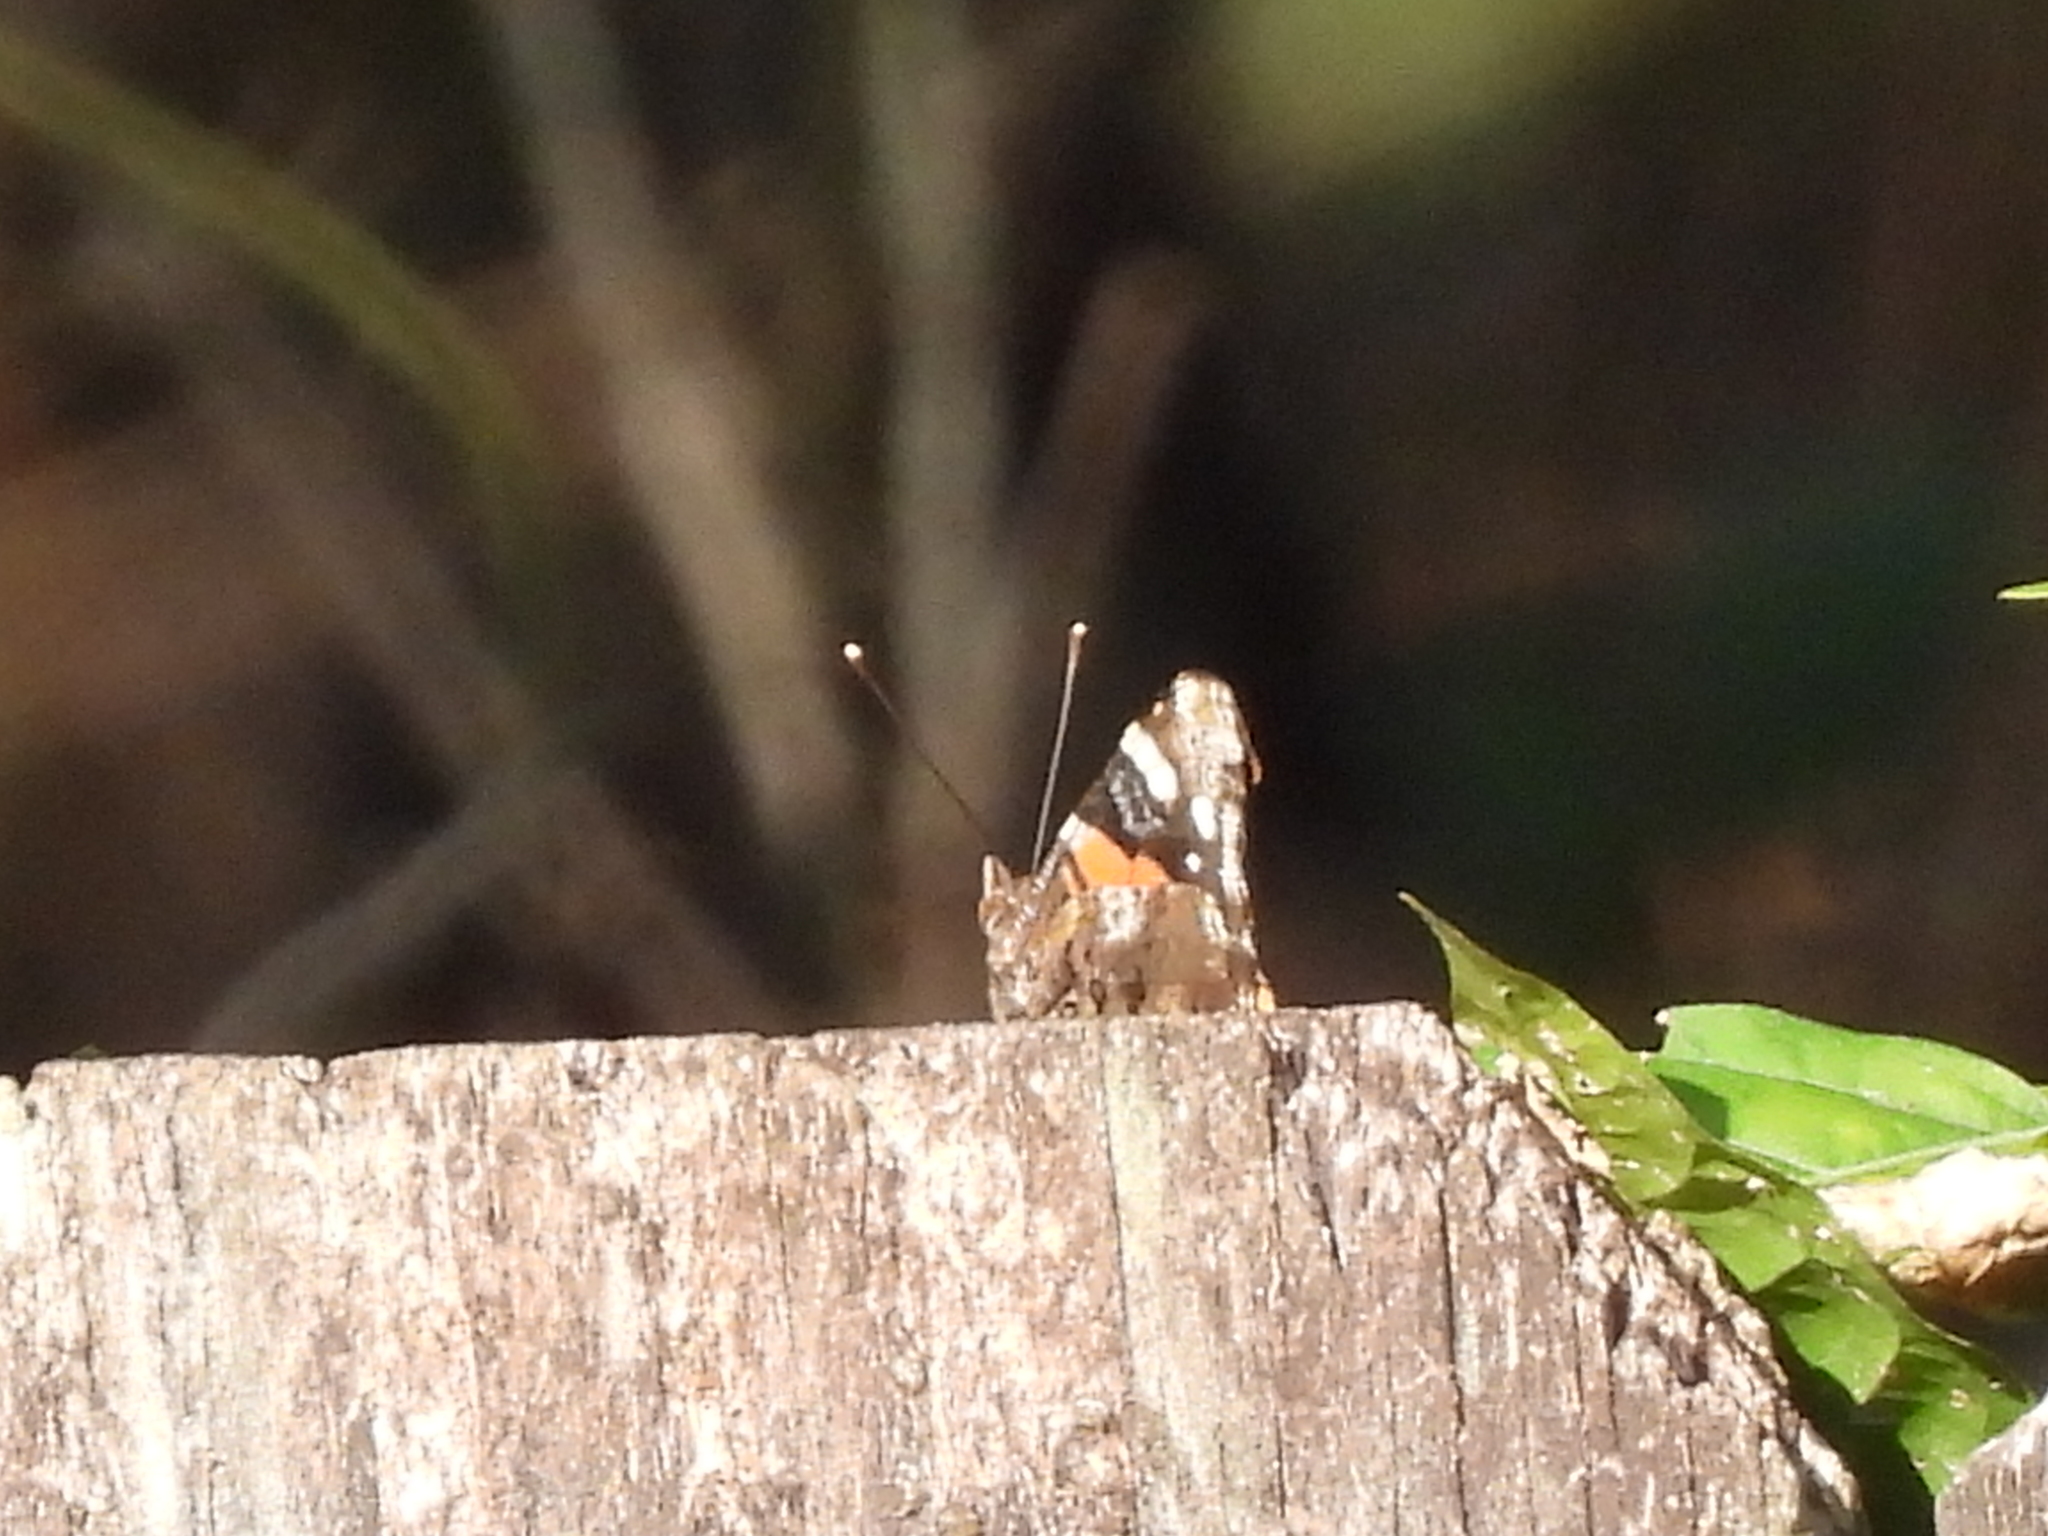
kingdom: Animalia
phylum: Arthropoda
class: Insecta
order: Lepidoptera
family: Nymphalidae
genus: Vanessa
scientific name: Vanessa atalanta
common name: Red admiral
